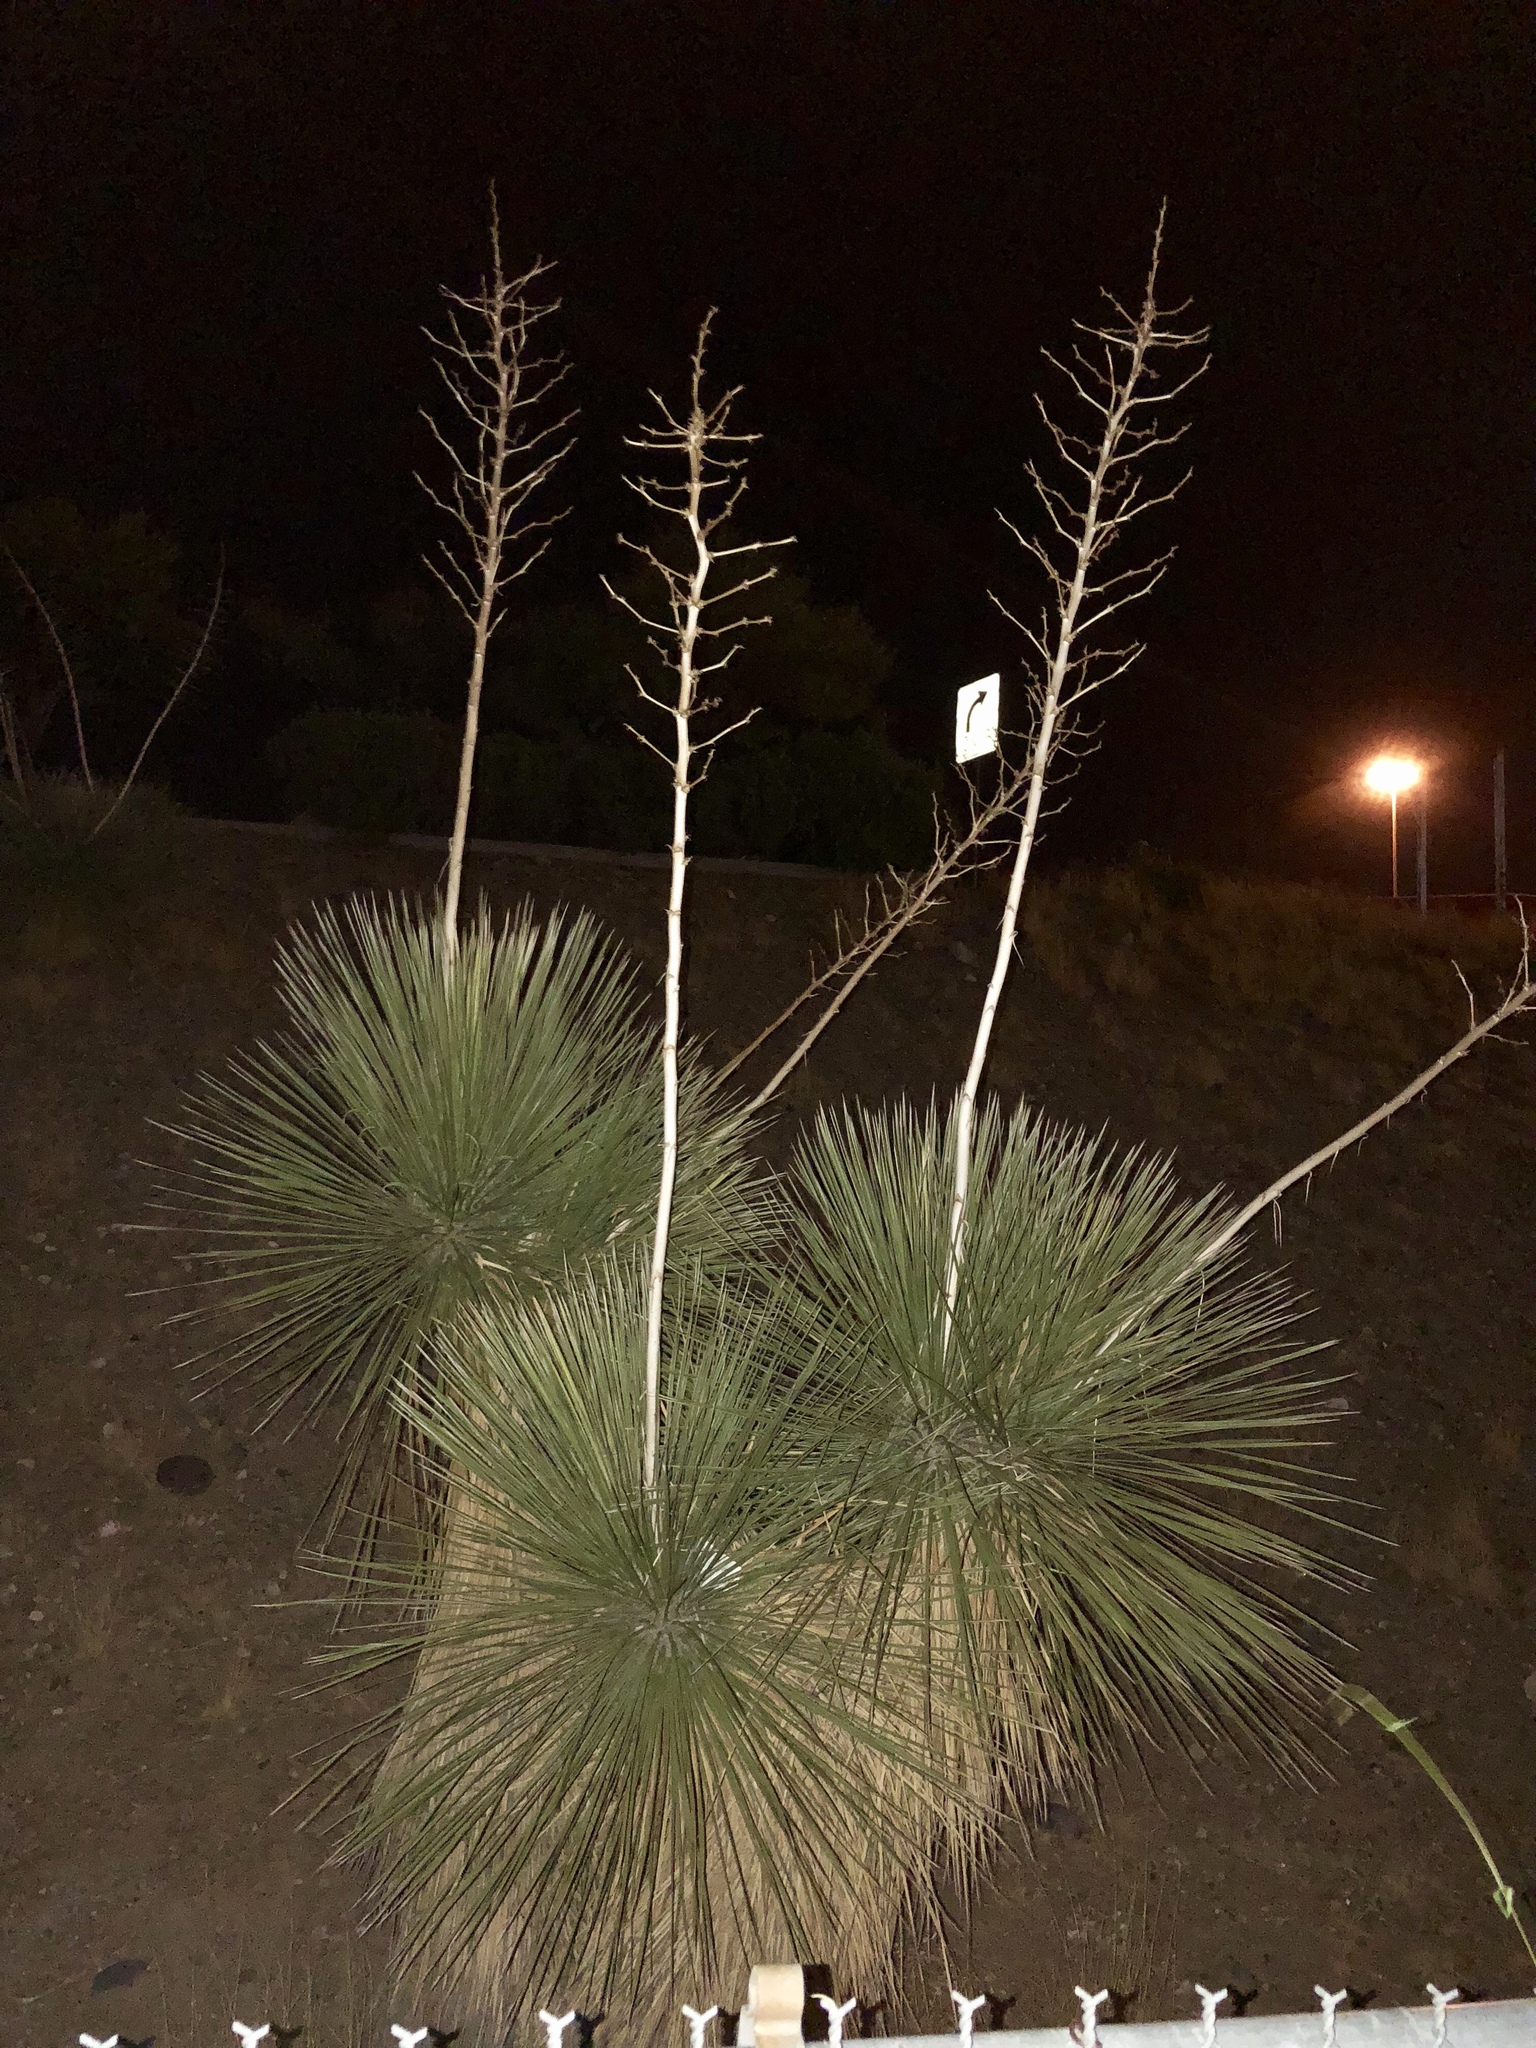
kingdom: Plantae
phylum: Tracheophyta
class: Liliopsida
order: Asparagales
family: Asparagaceae
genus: Yucca
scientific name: Yucca elata
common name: Palmella
